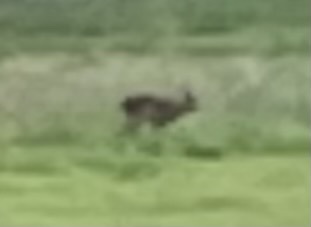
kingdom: Animalia
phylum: Chordata
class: Mammalia
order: Artiodactyla
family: Cervidae
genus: Capreolus
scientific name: Capreolus capreolus
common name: Western roe deer
